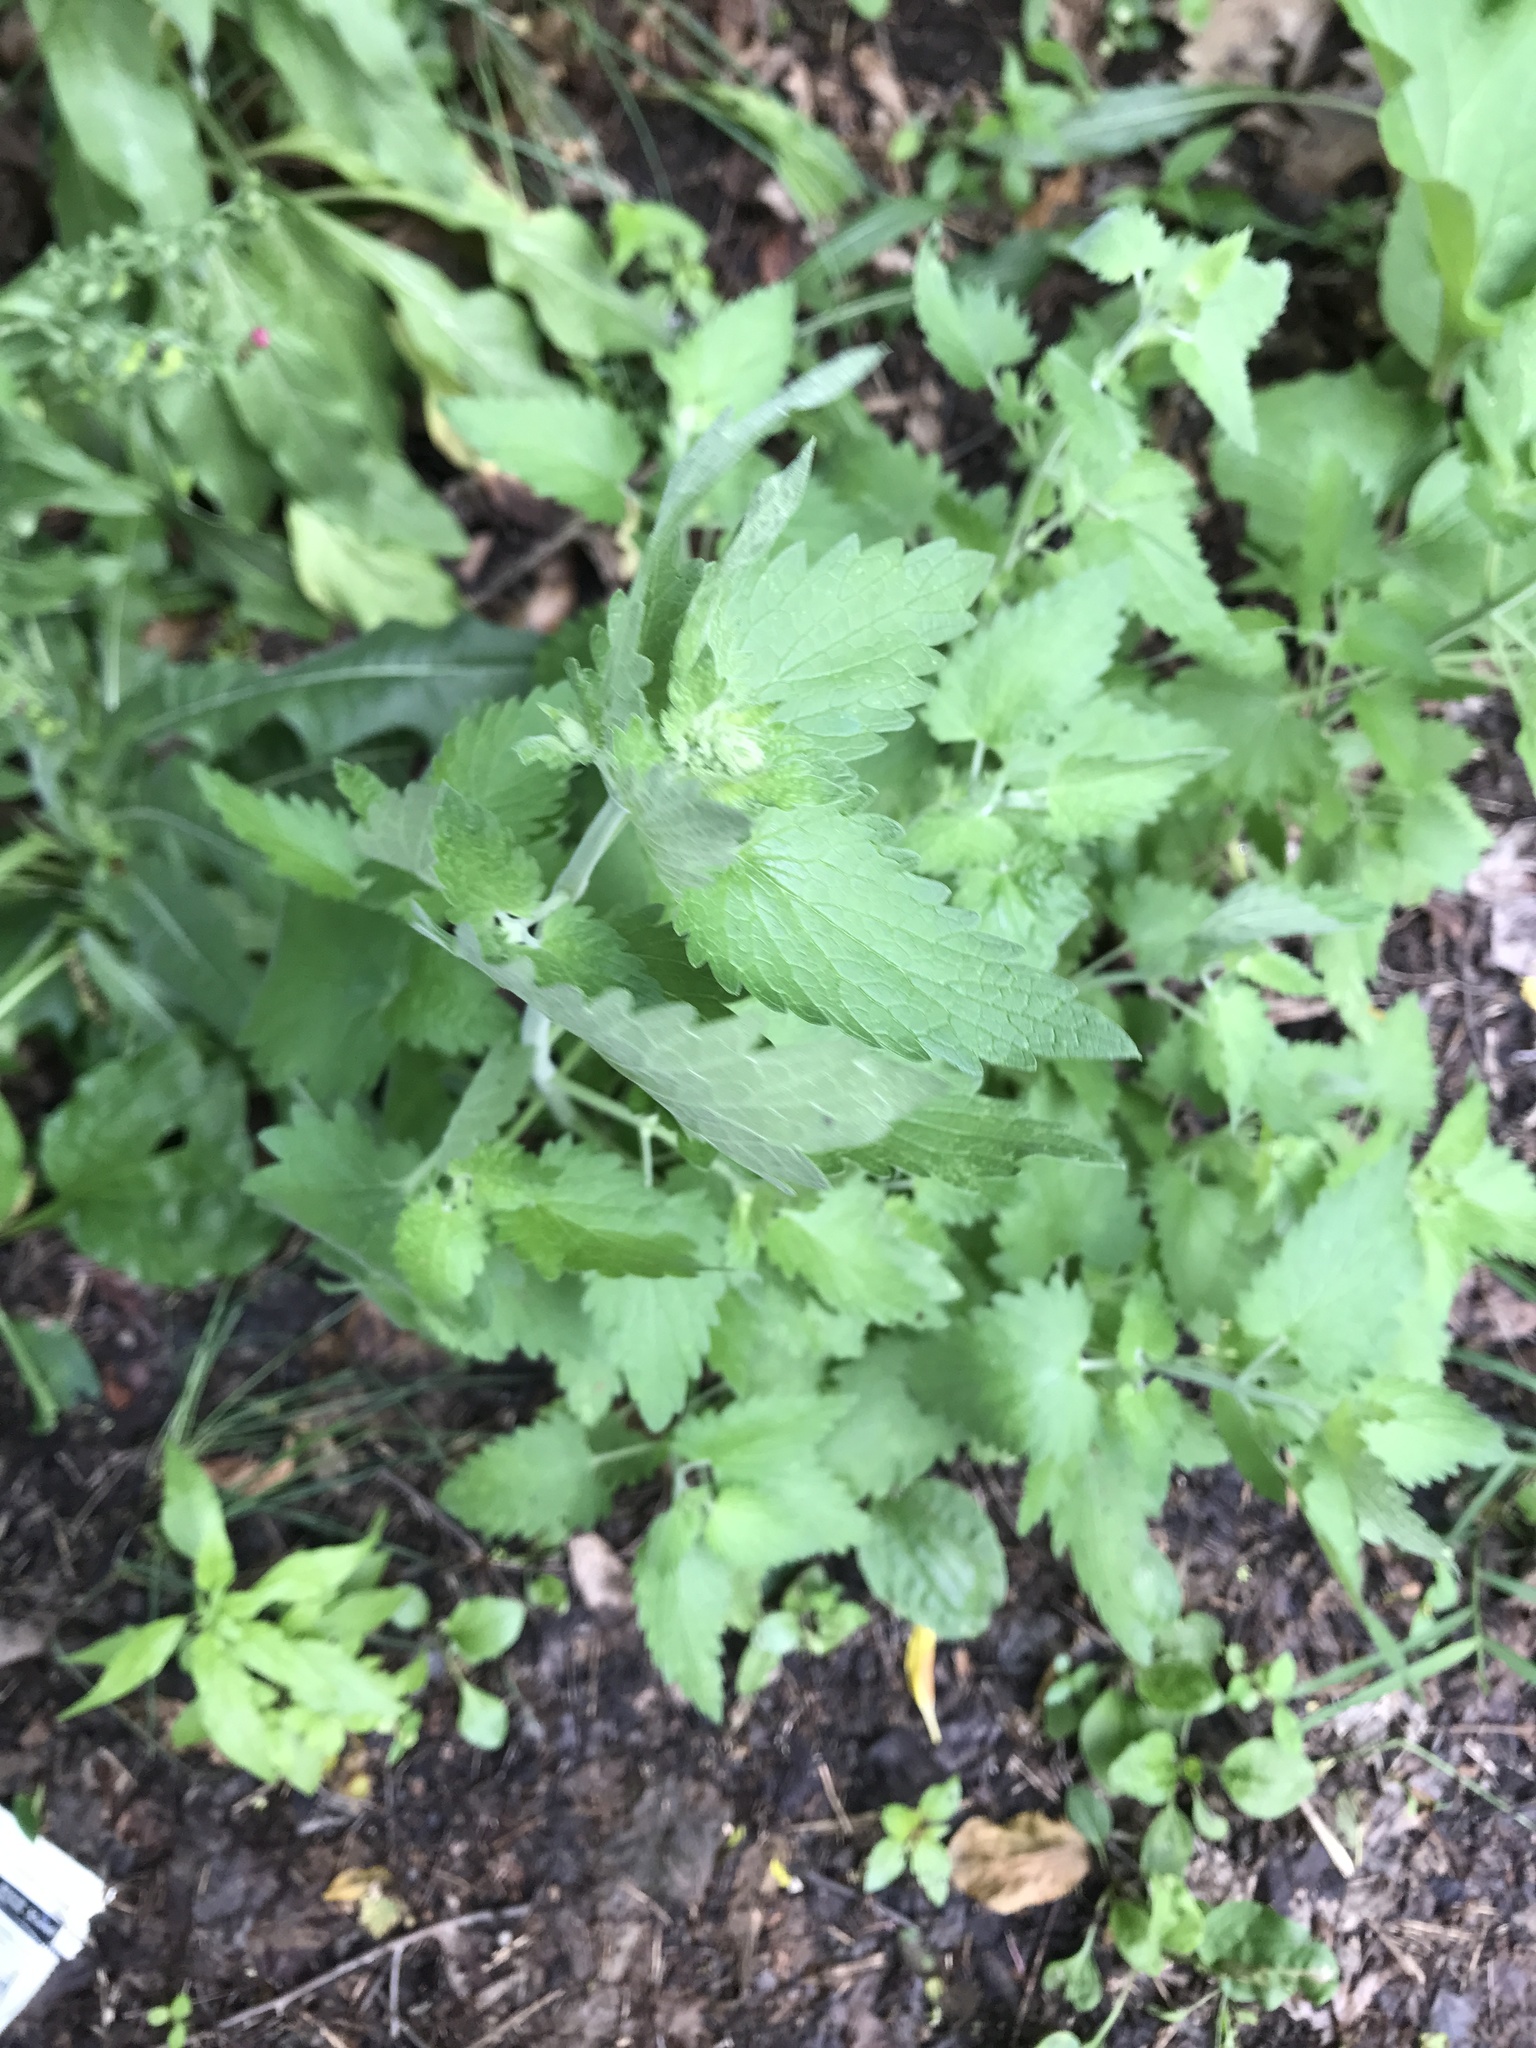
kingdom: Plantae
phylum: Tracheophyta
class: Magnoliopsida
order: Lamiales
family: Lamiaceae
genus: Nepeta
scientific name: Nepeta cataria
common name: Catnip
